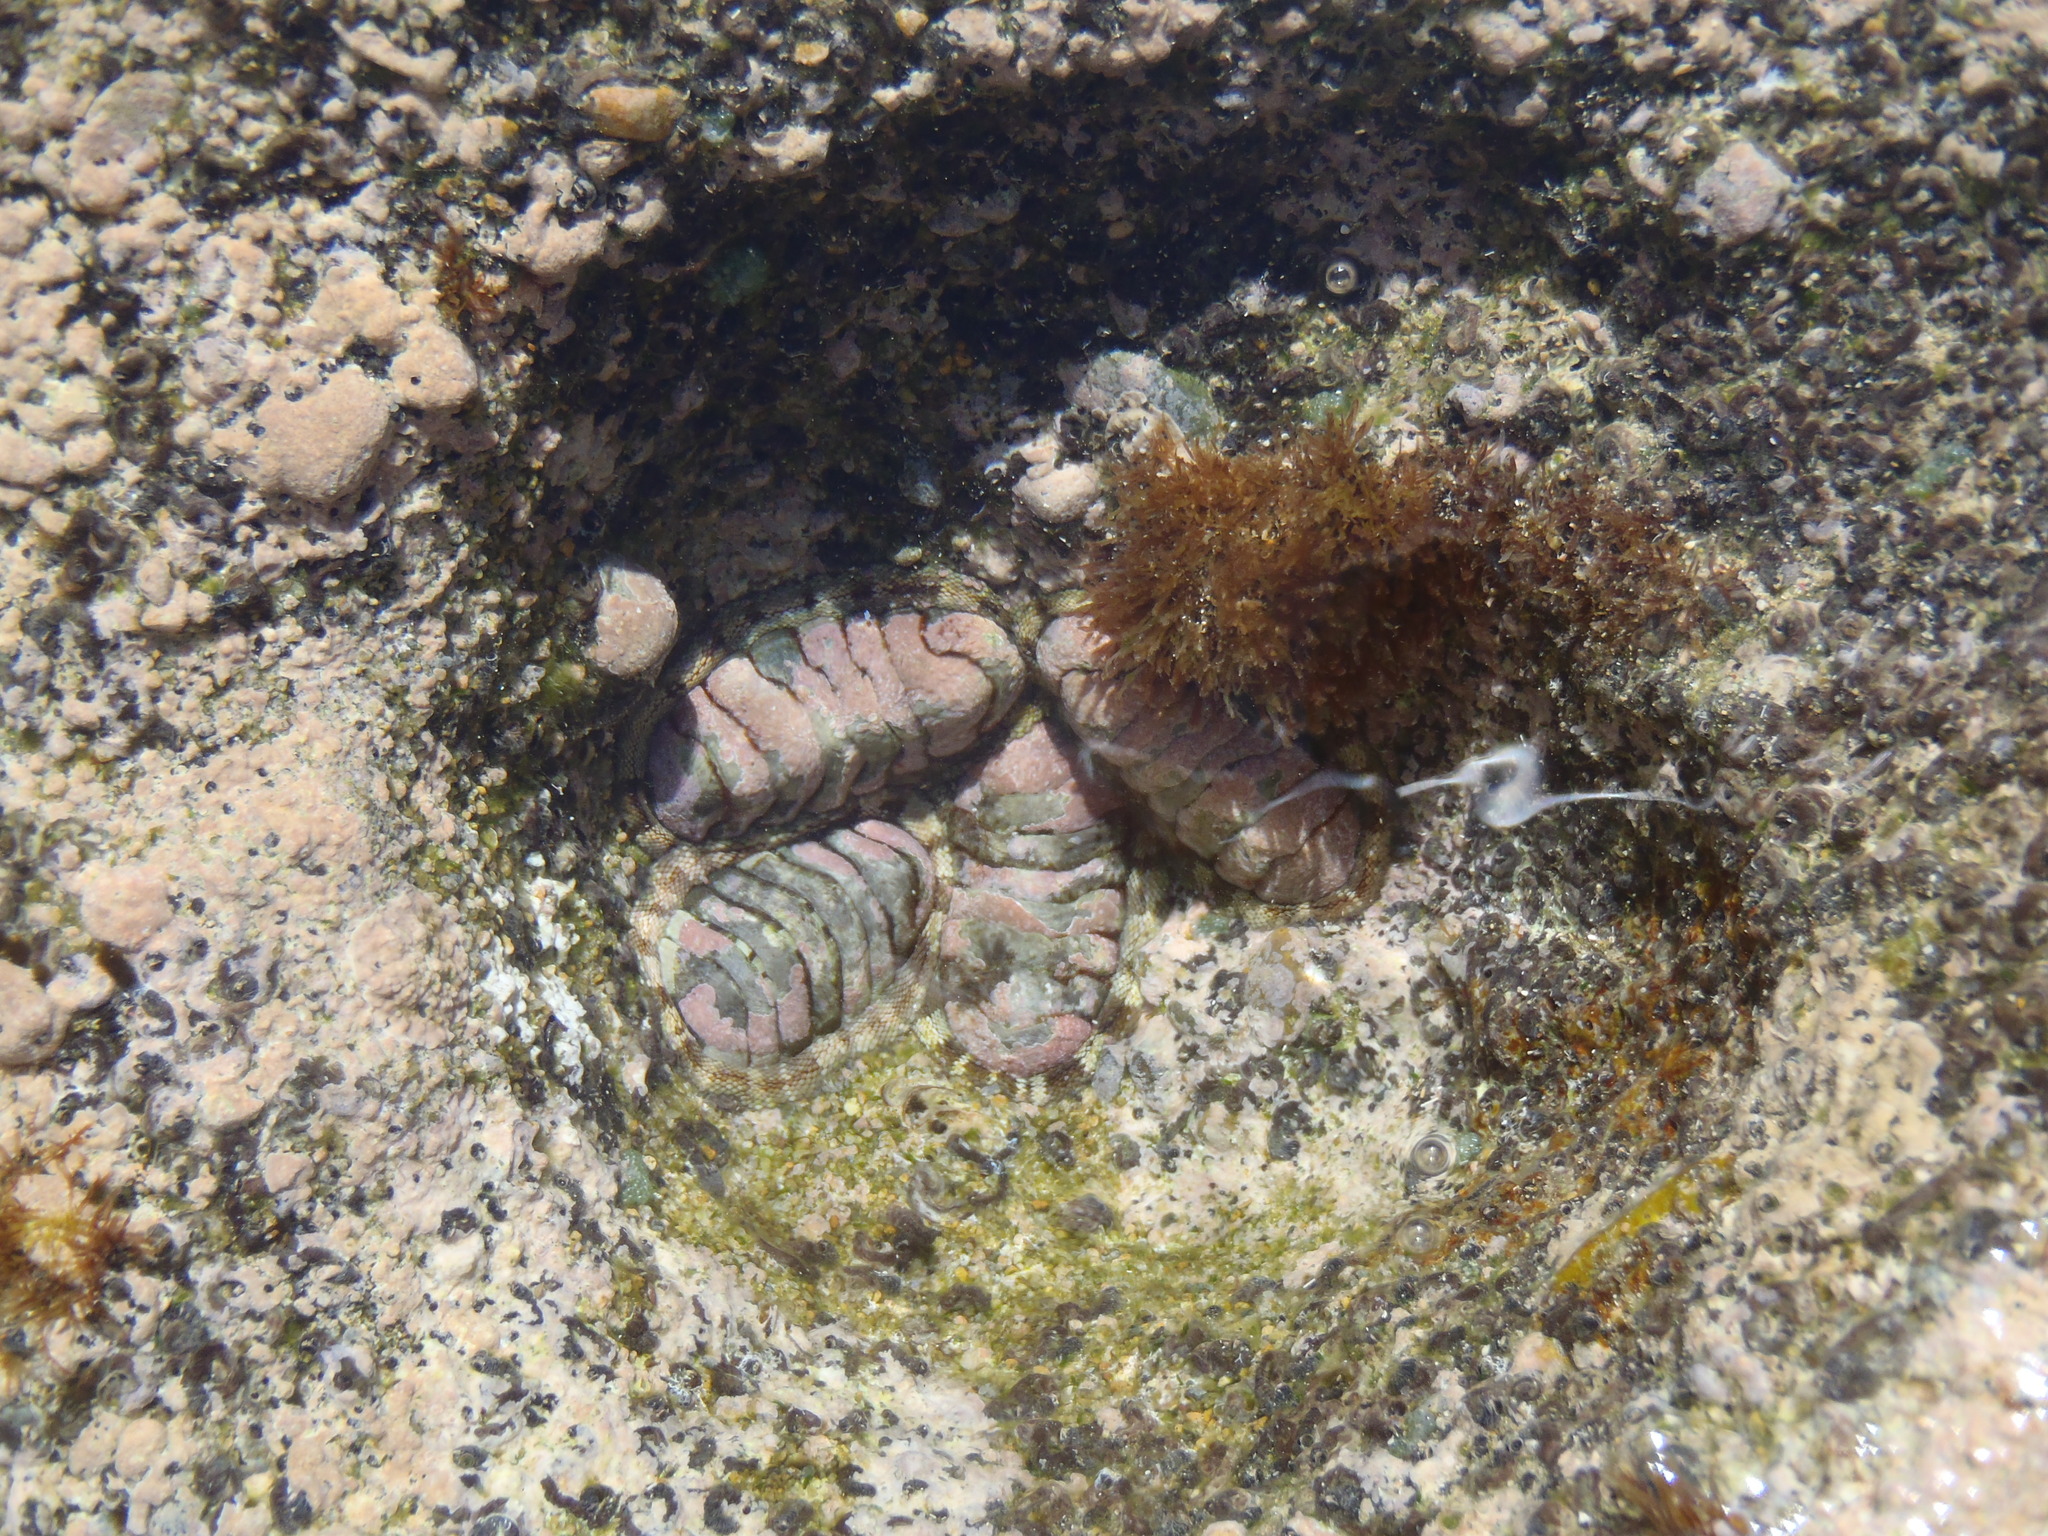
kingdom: Animalia
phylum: Mollusca
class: Polyplacophora
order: Chitonida
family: Chitonidae
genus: Chiton
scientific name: Chiton squamosus
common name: Squamose chiton
